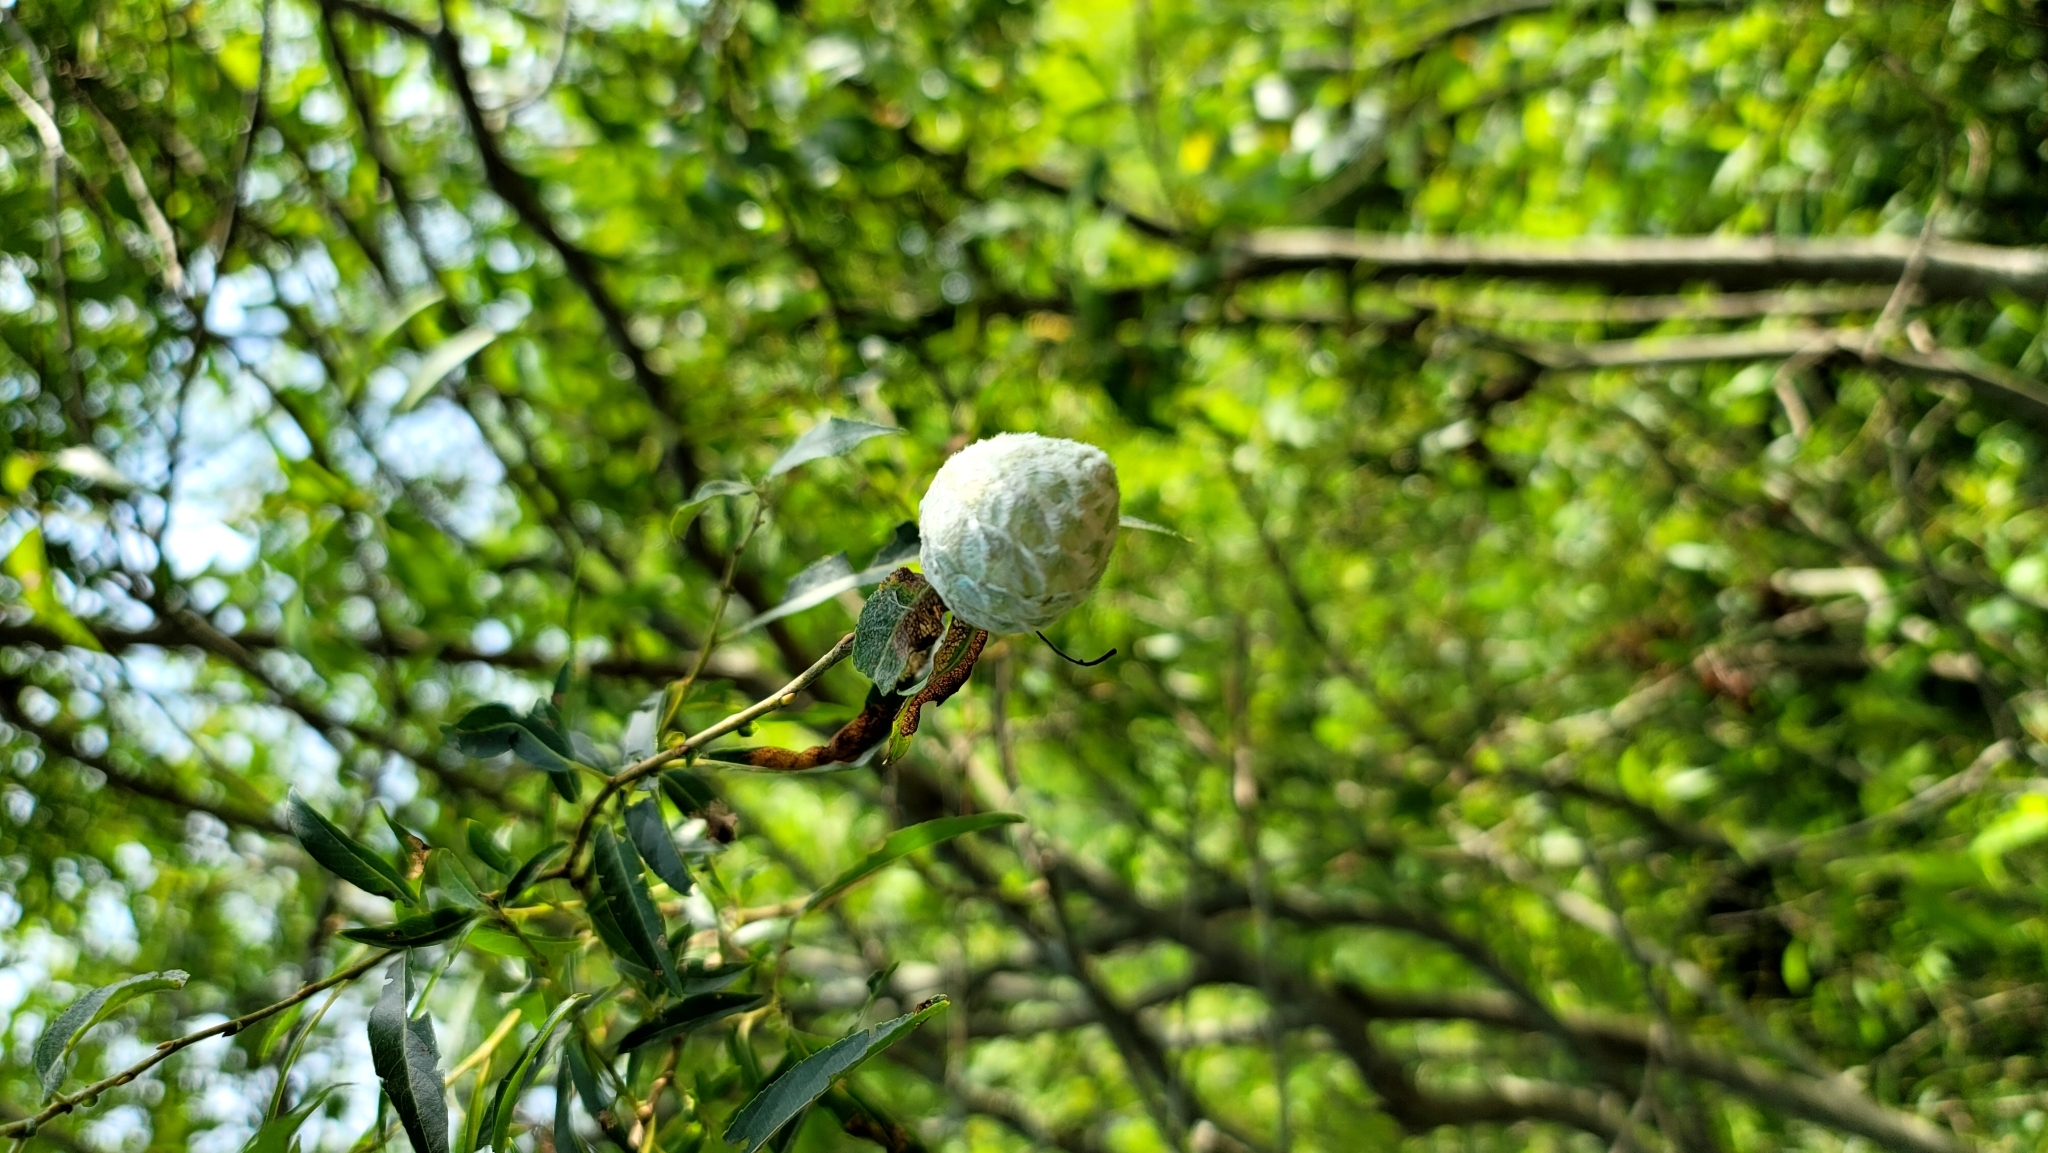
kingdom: Animalia
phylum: Arthropoda
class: Insecta
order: Diptera
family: Cecidomyiidae
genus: Rabdophaga
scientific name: Rabdophaga strobiloides
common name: Willow pinecone gall midge
